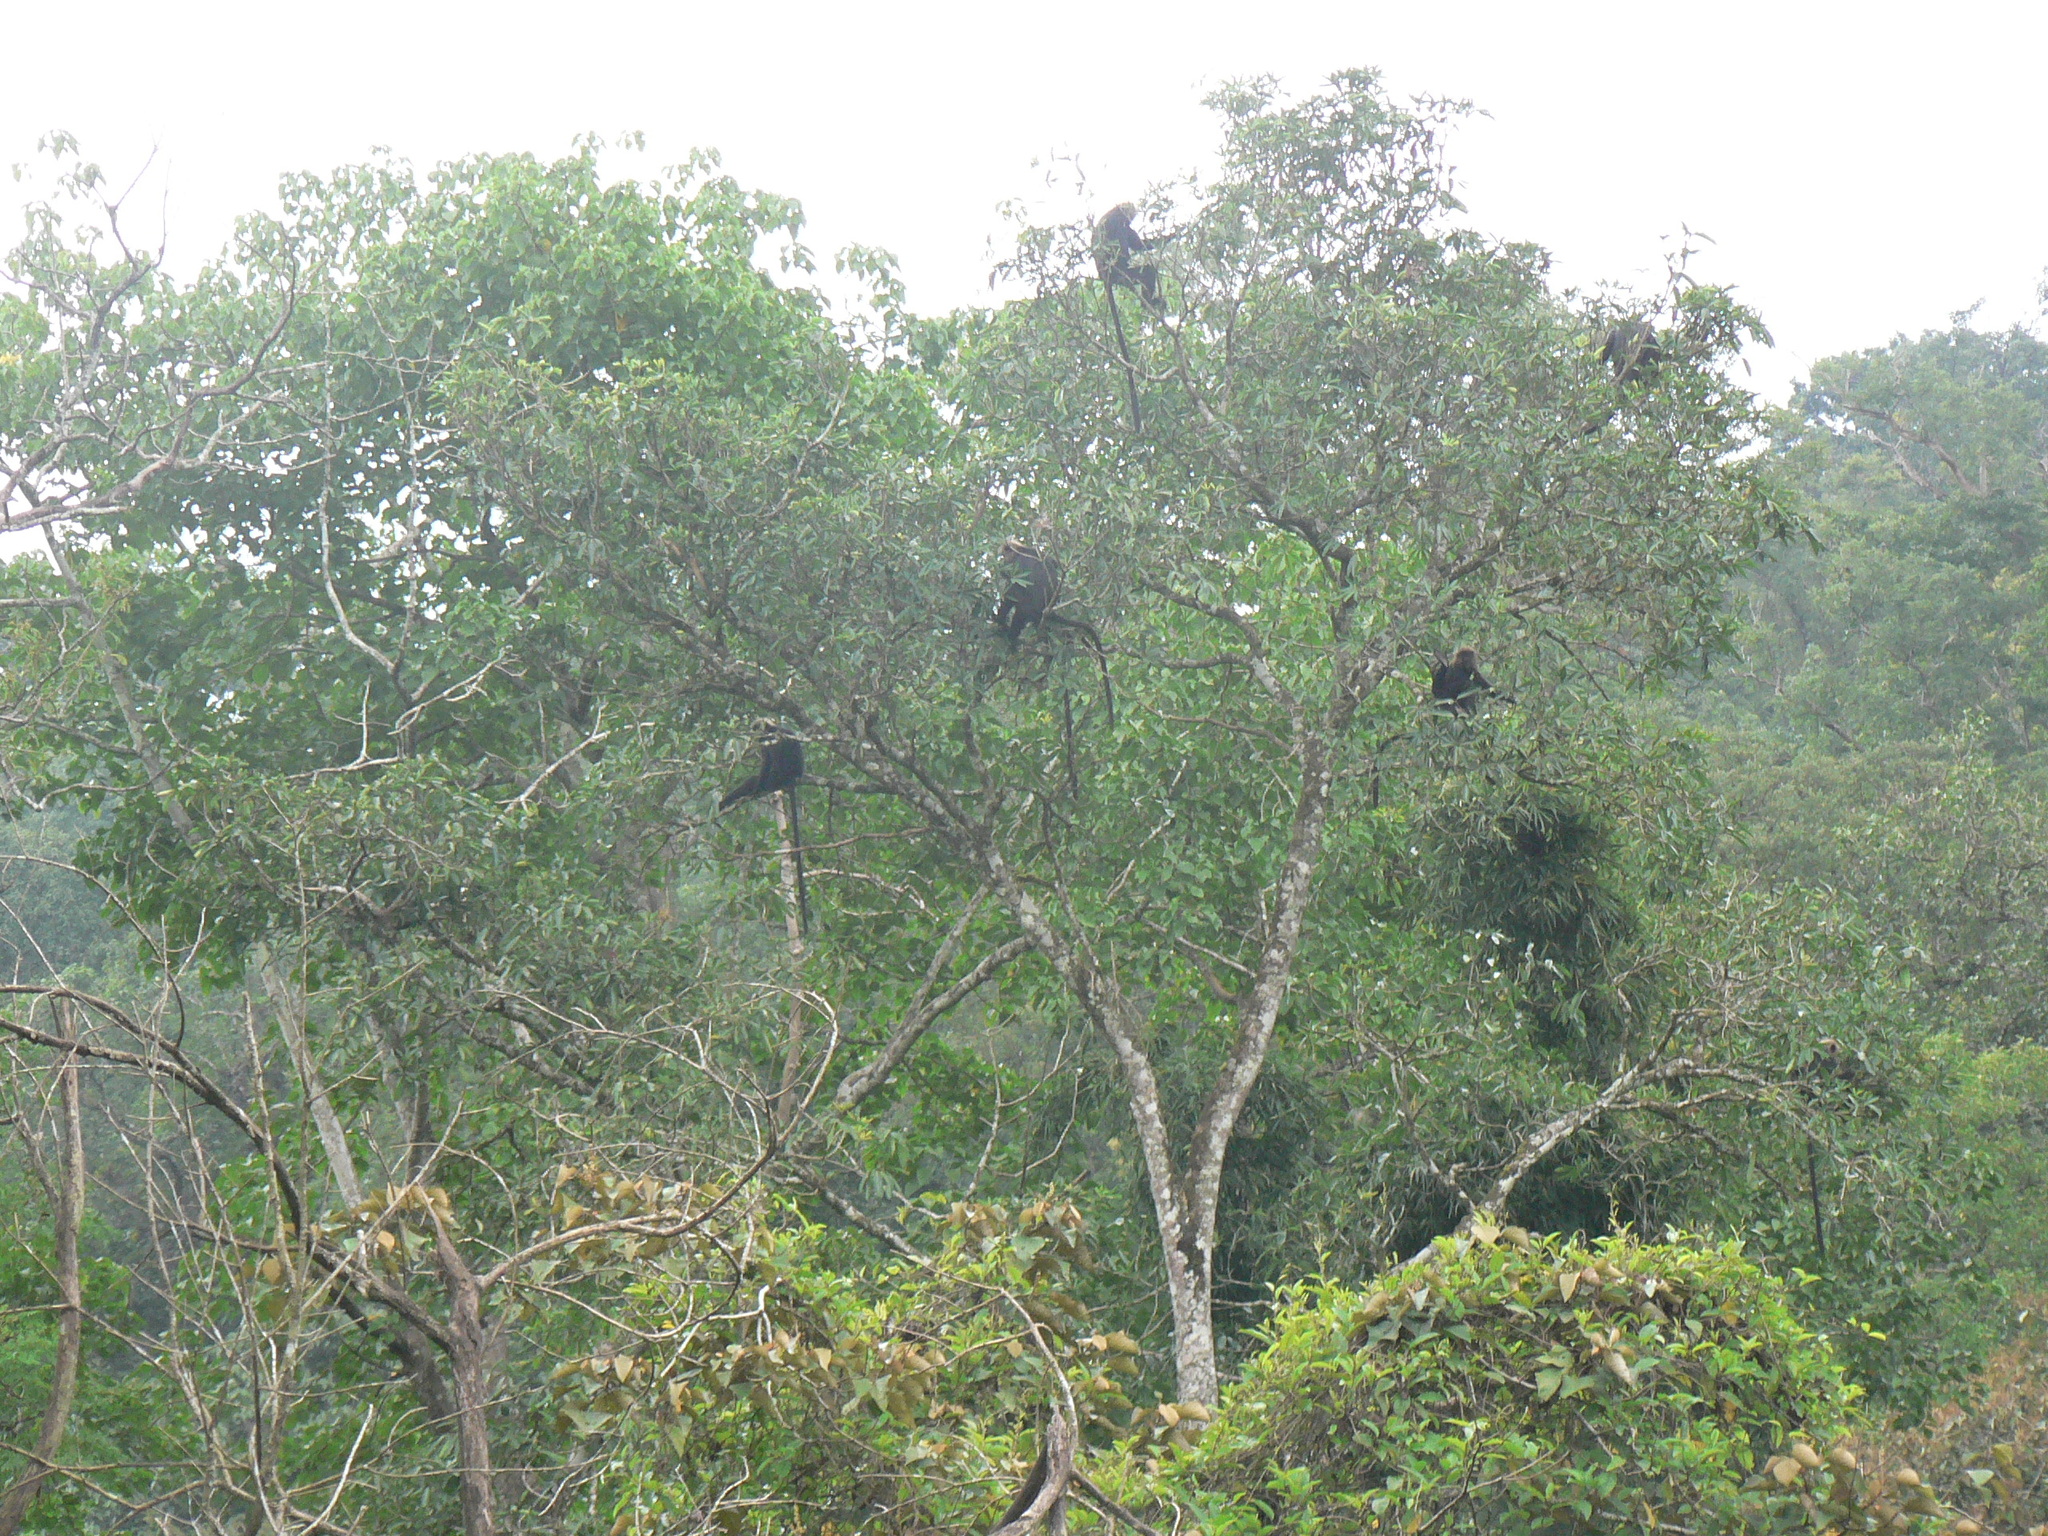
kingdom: Animalia
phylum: Chordata
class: Mammalia
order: Primates
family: Cercopithecidae
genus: Semnopithecus
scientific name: Semnopithecus johnii
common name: Nilgiri langur
